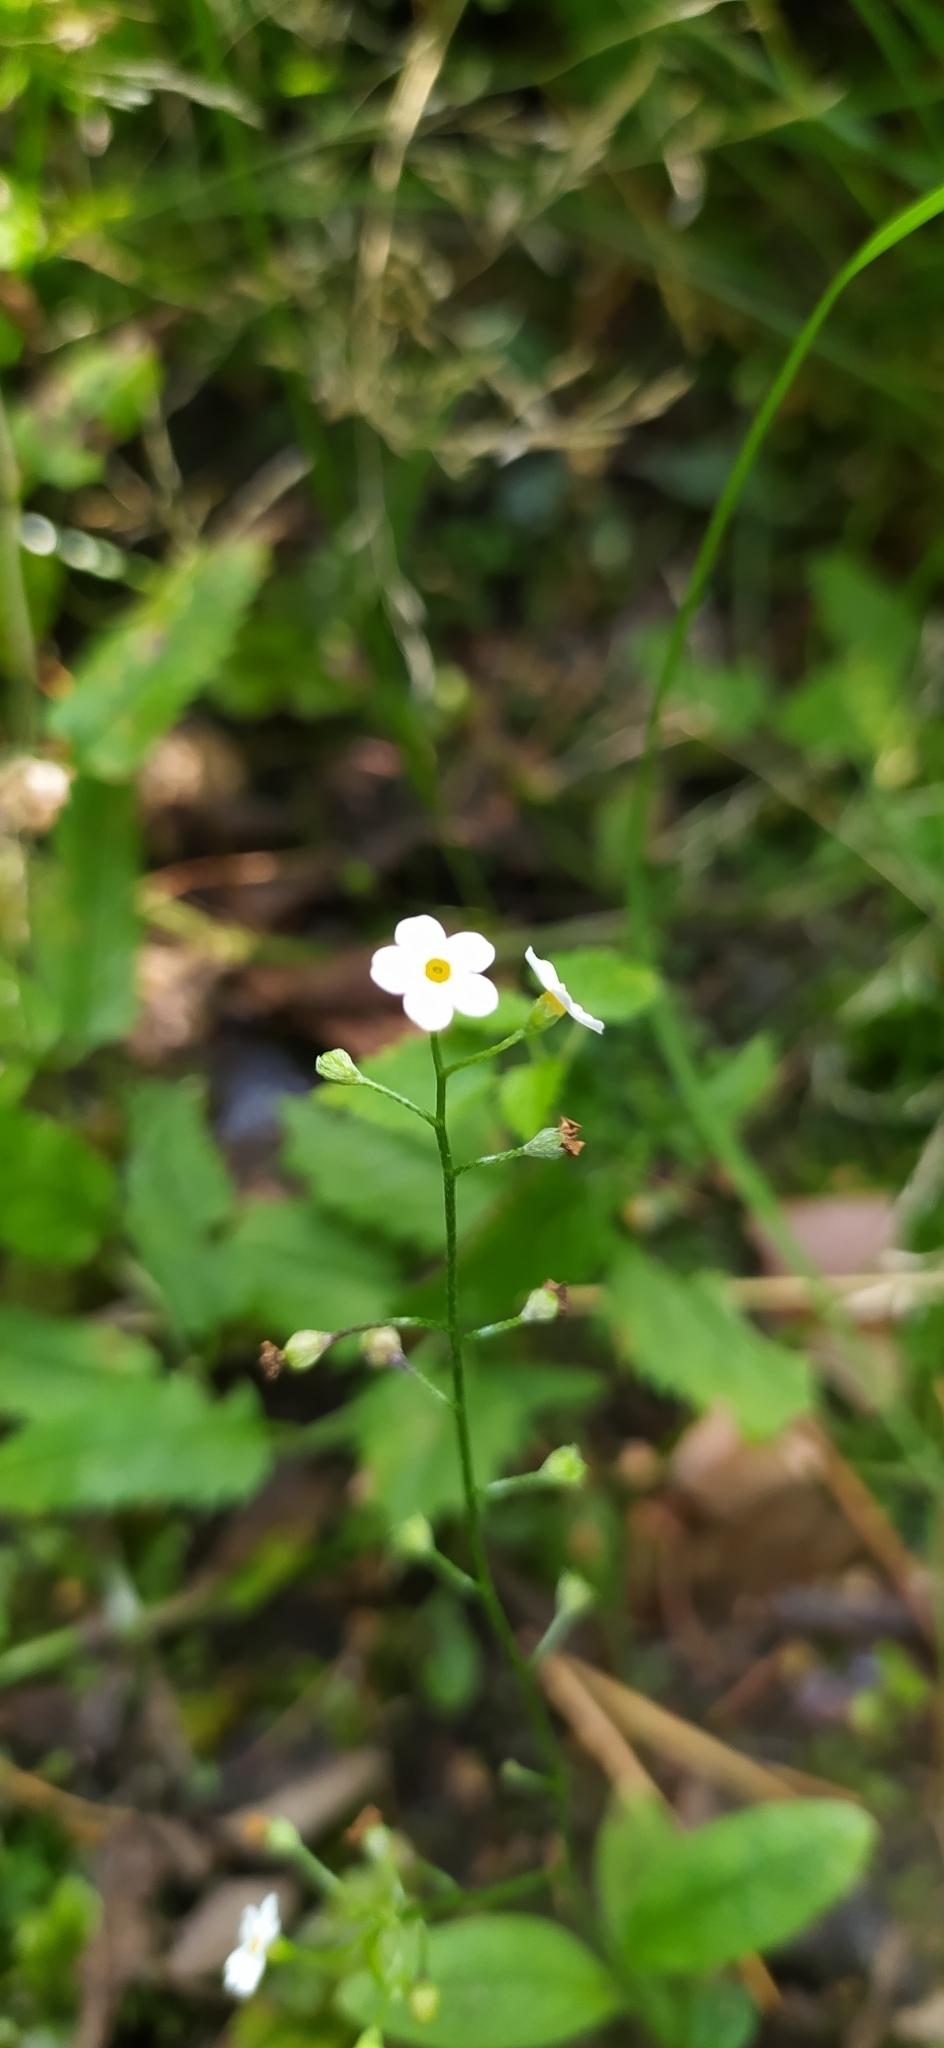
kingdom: Plantae
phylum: Tracheophyta
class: Magnoliopsida
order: Boraginales
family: Boraginaceae
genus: Myosotis
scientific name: Myosotis scorpioides
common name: Water forget-me-not
